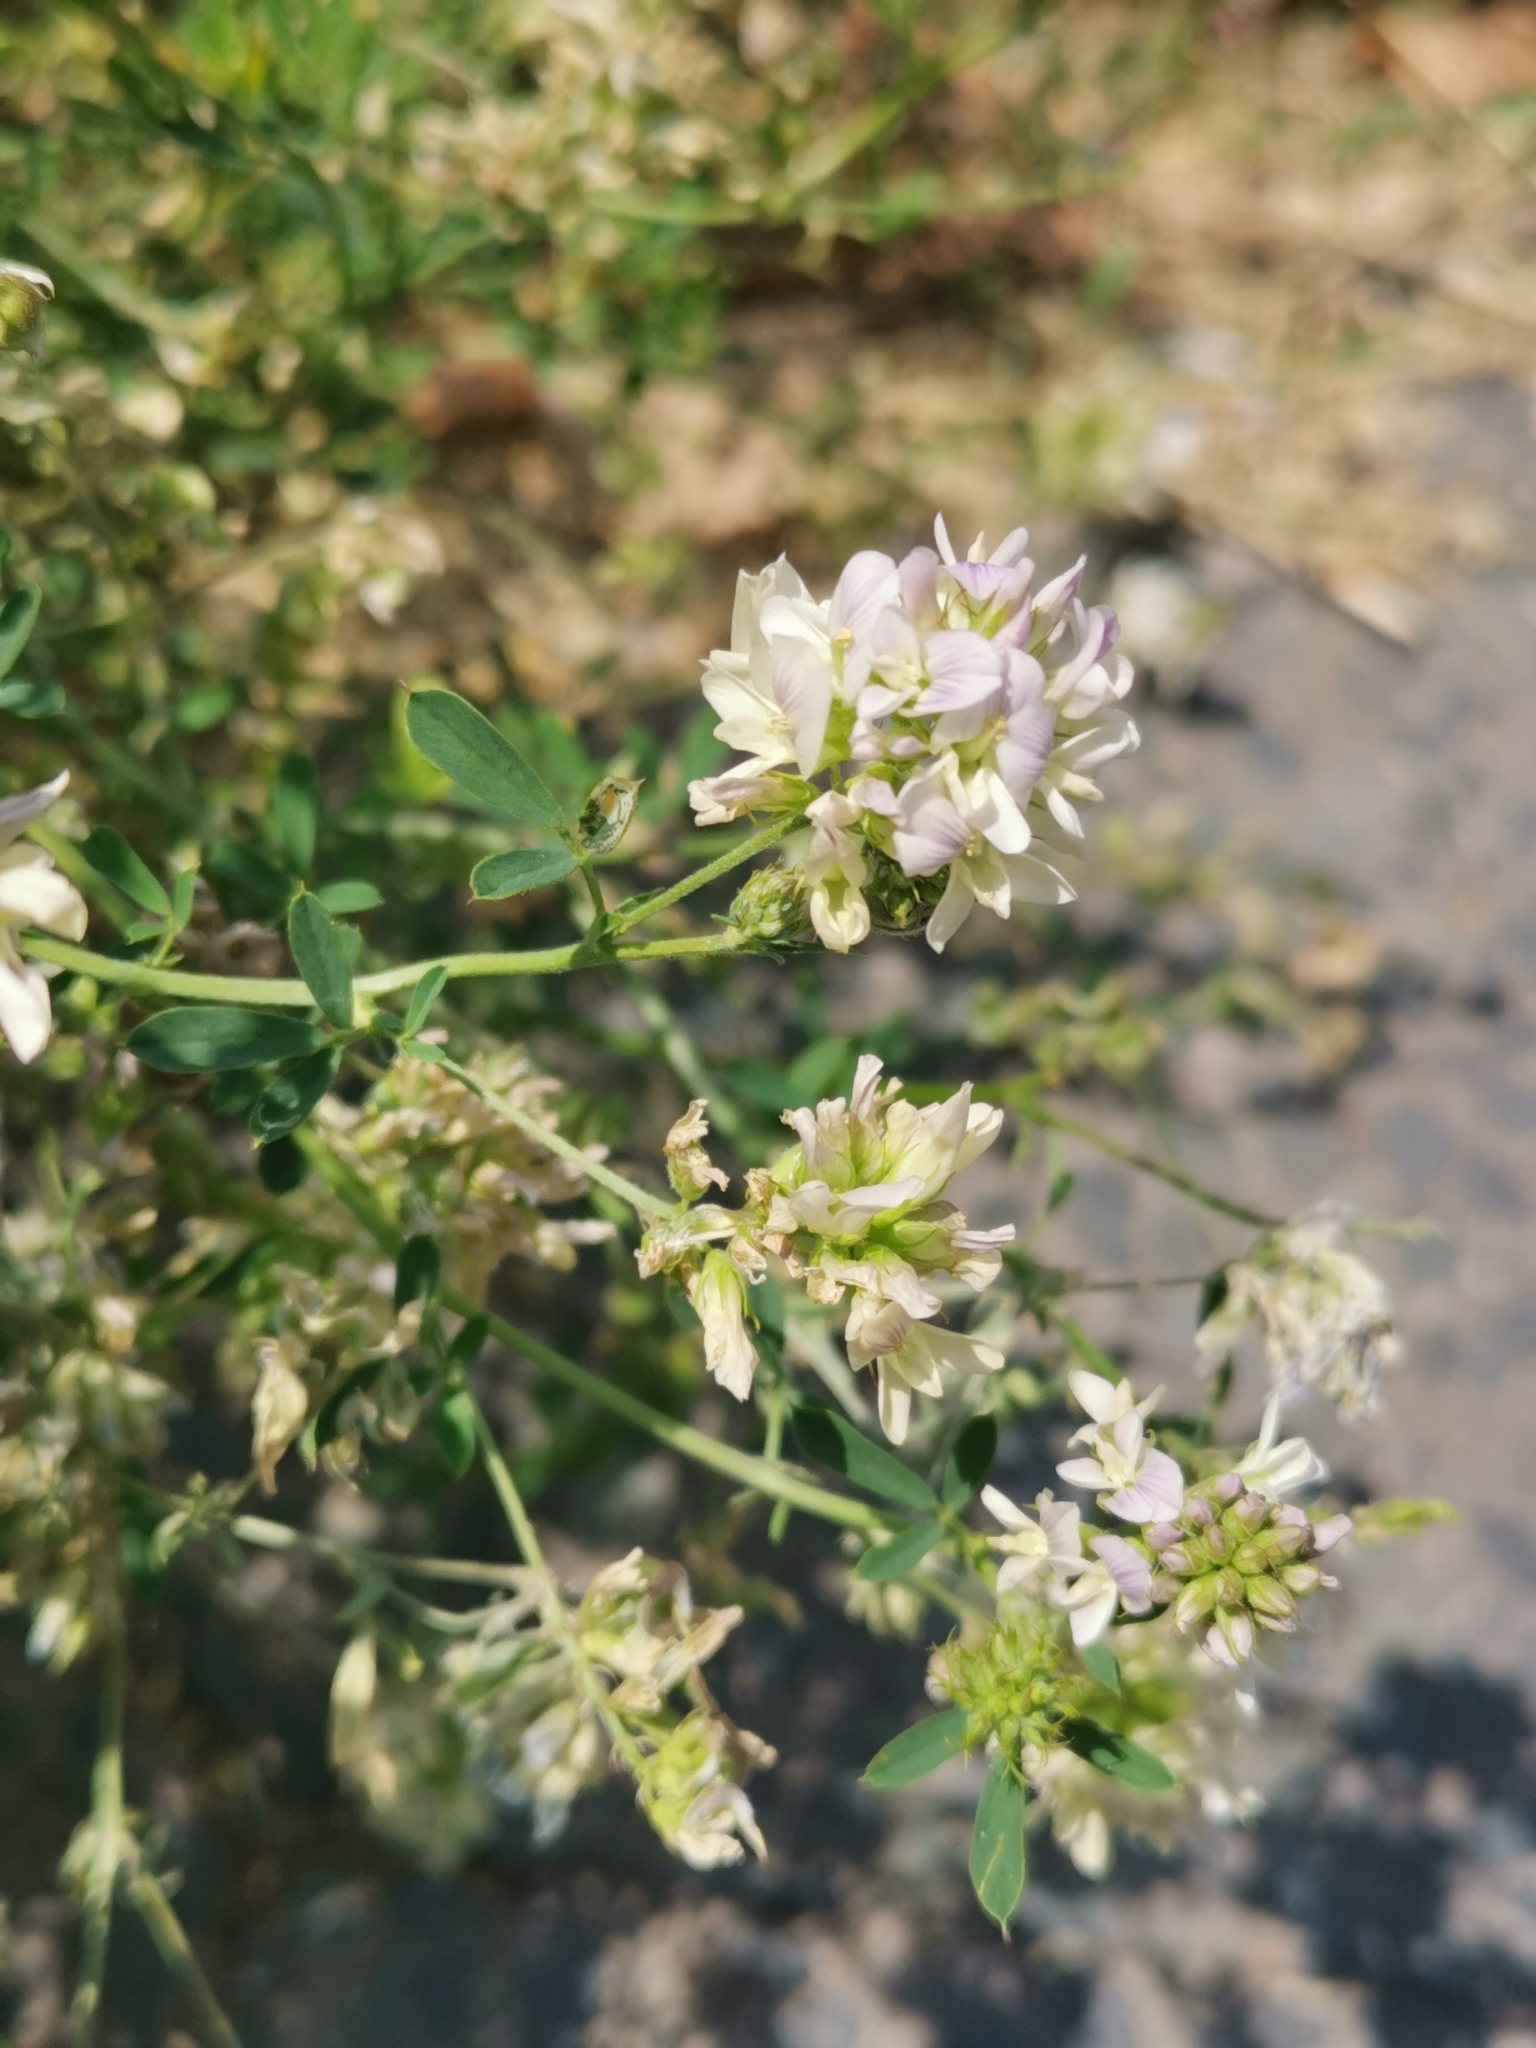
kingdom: Plantae
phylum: Tracheophyta
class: Magnoliopsida
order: Fabales
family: Fabaceae
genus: Medicago
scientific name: Medicago varia
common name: Sand lucerne
